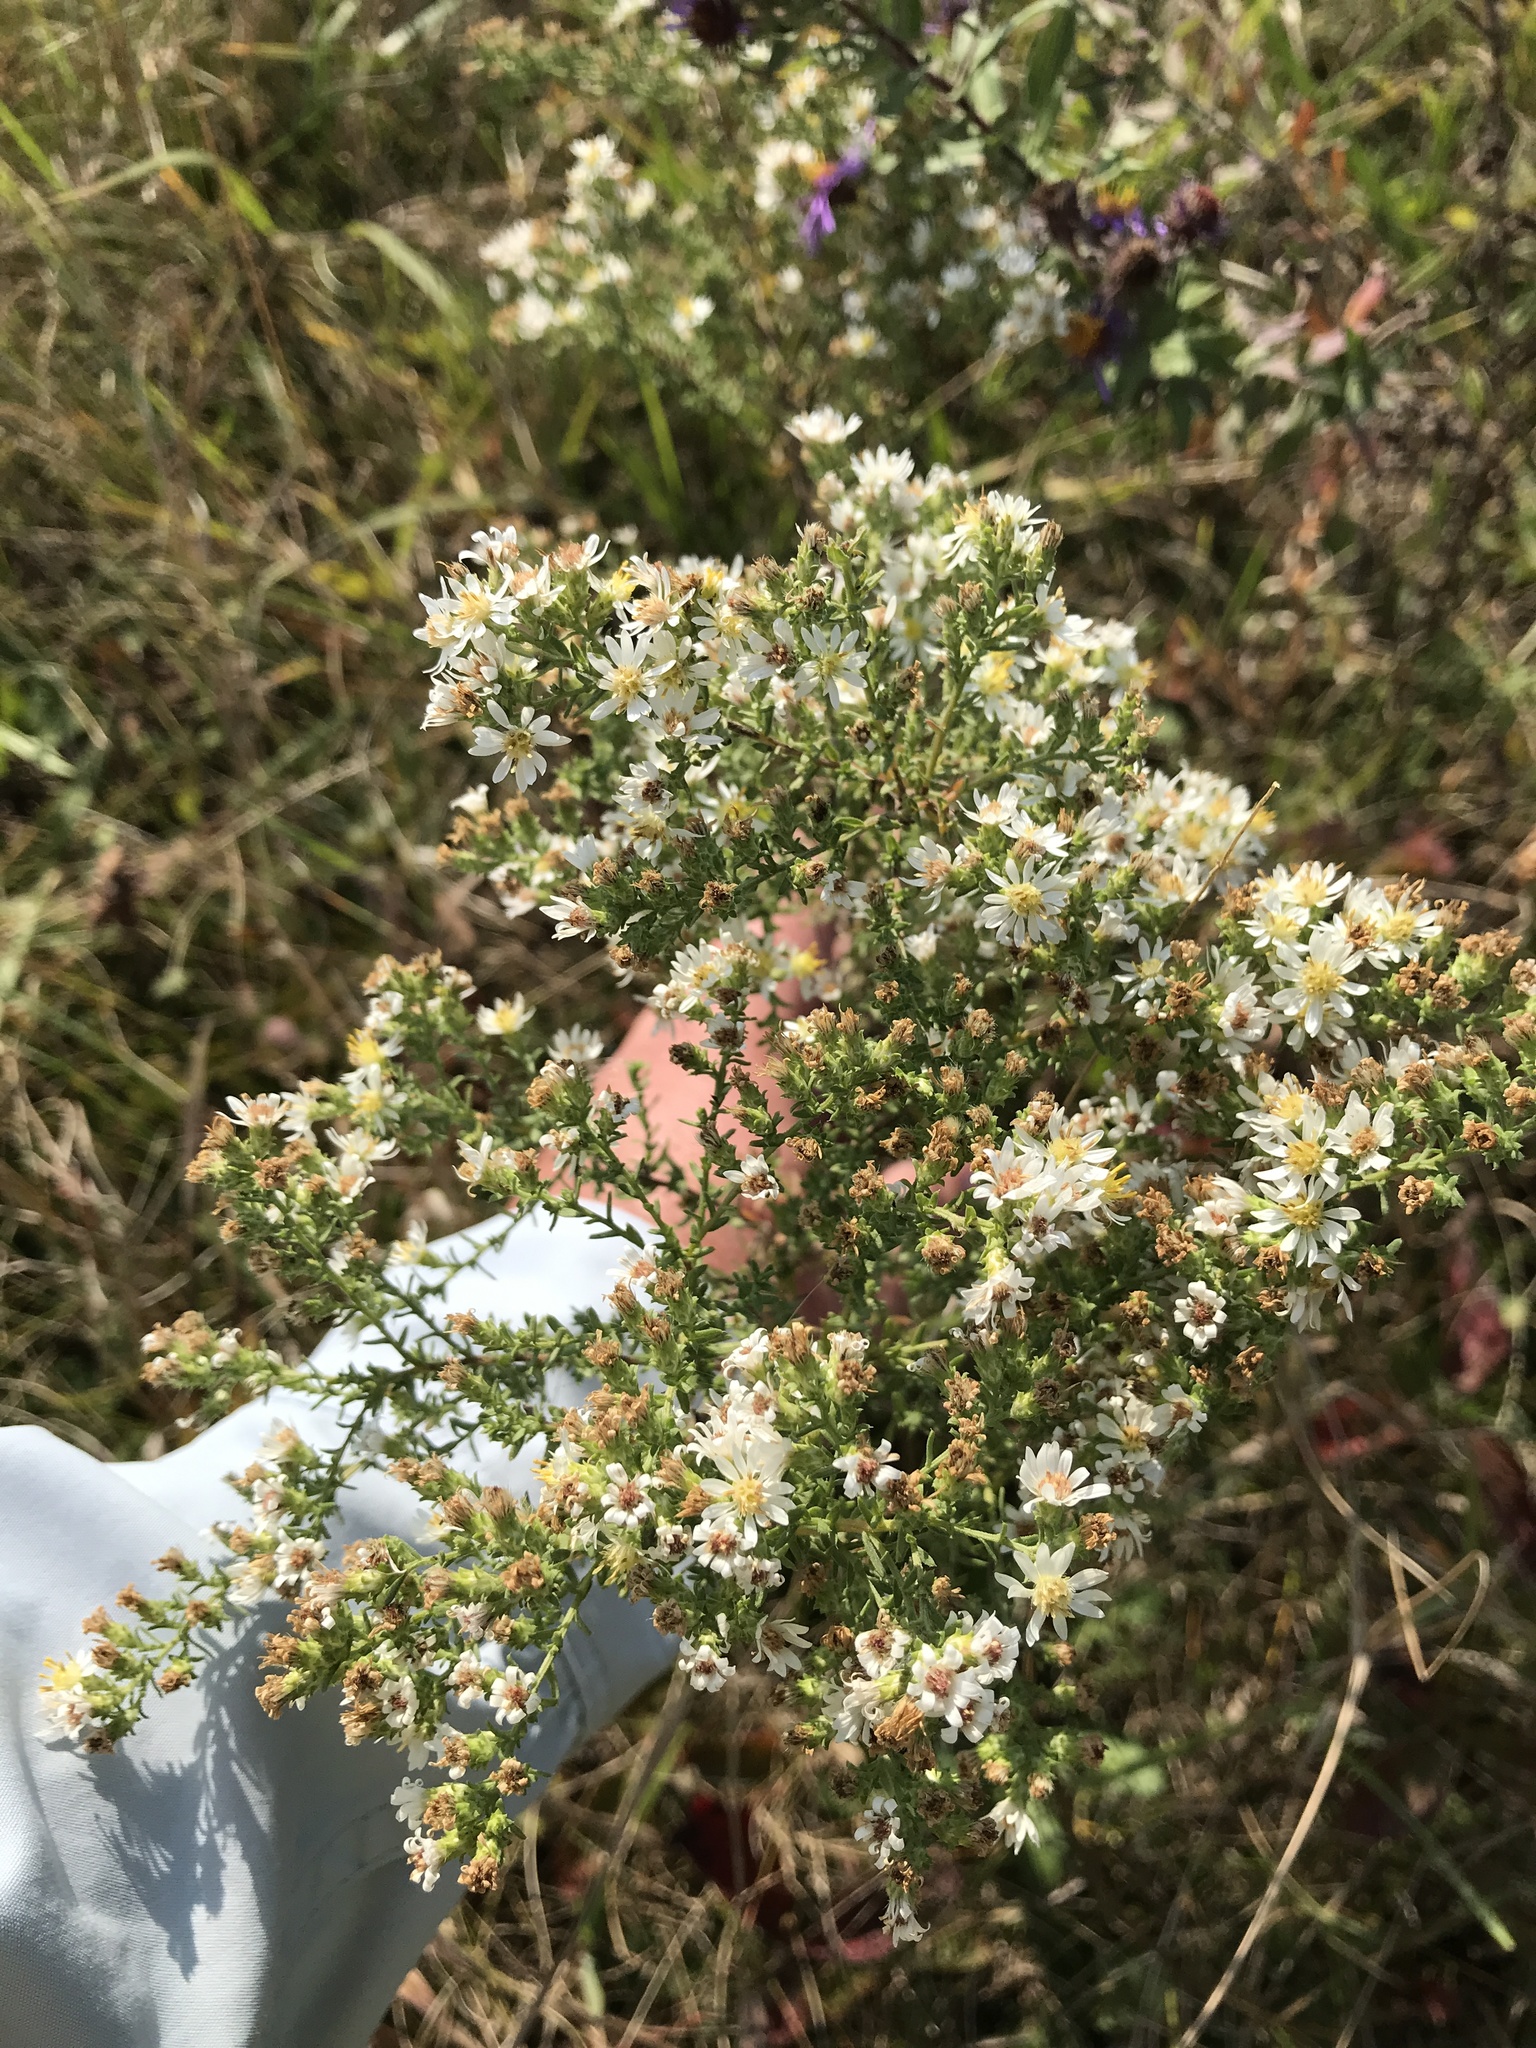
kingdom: Plantae
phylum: Tracheophyta
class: Magnoliopsida
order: Asterales
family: Asteraceae
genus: Symphyotrichum
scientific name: Symphyotrichum ericoides
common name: Heath aster
